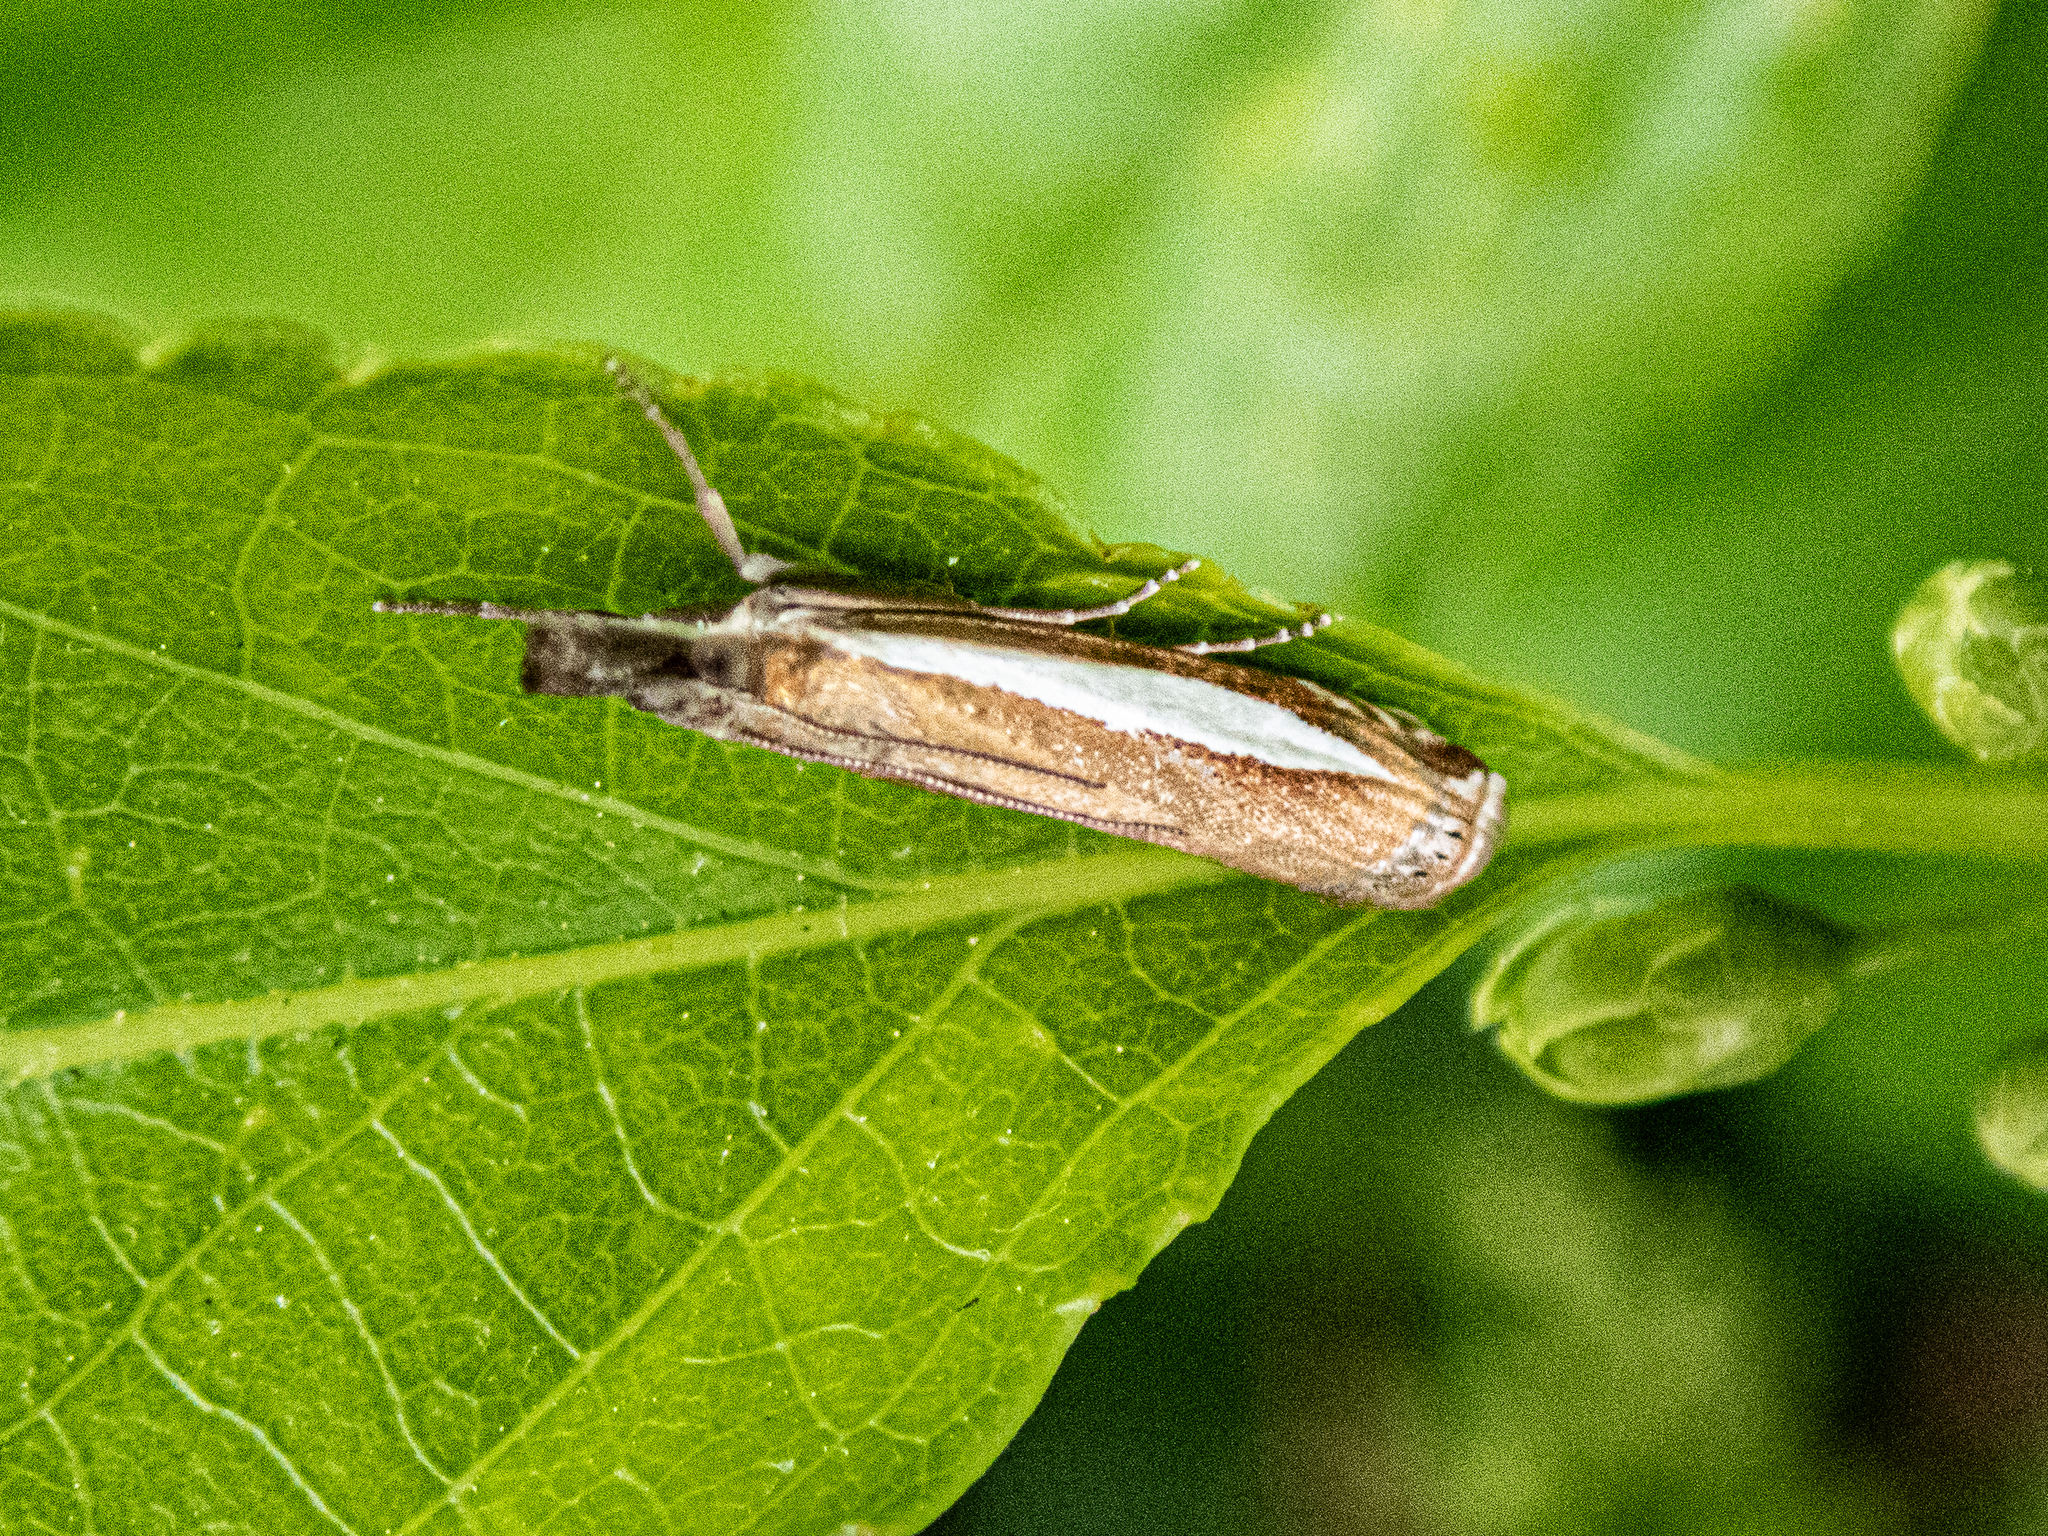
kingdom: Animalia
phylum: Arthropoda
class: Insecta
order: Lepidoptera
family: Crambidae
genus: Crambus
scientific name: Crambus praefectellus
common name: Common grass-veneer
